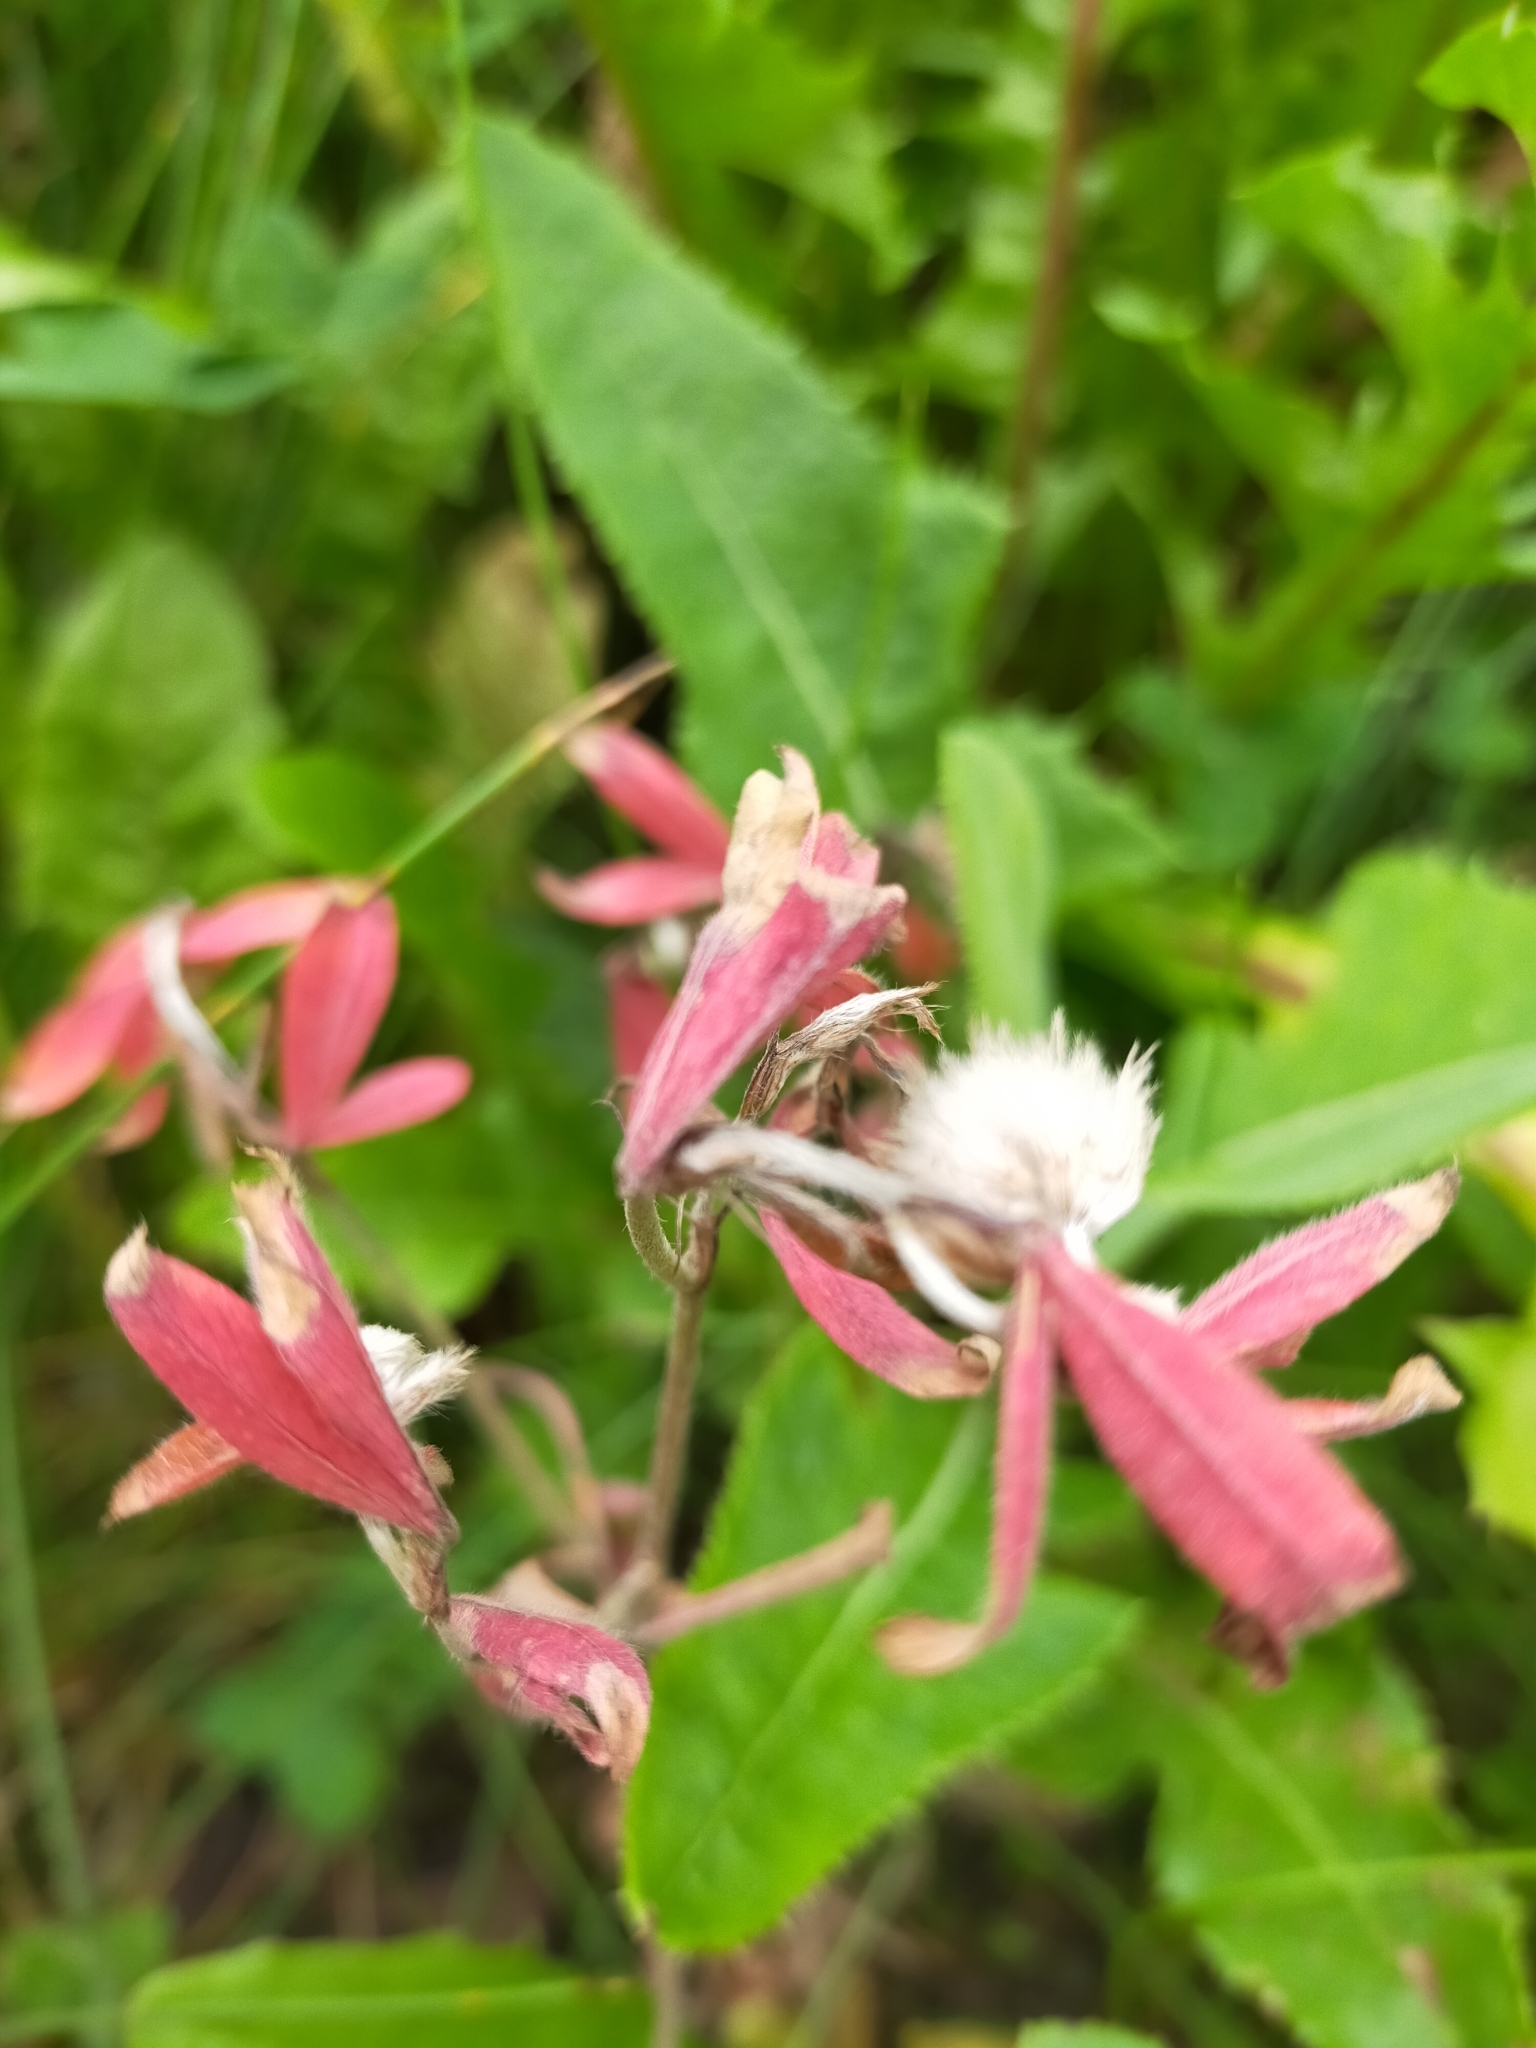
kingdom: Plantae
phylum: Tracheophyta
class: Magnoliopsida
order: Fabales
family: Fabaceae
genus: Trifolium
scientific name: Trifolium arvense
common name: Hare's-foot clover
